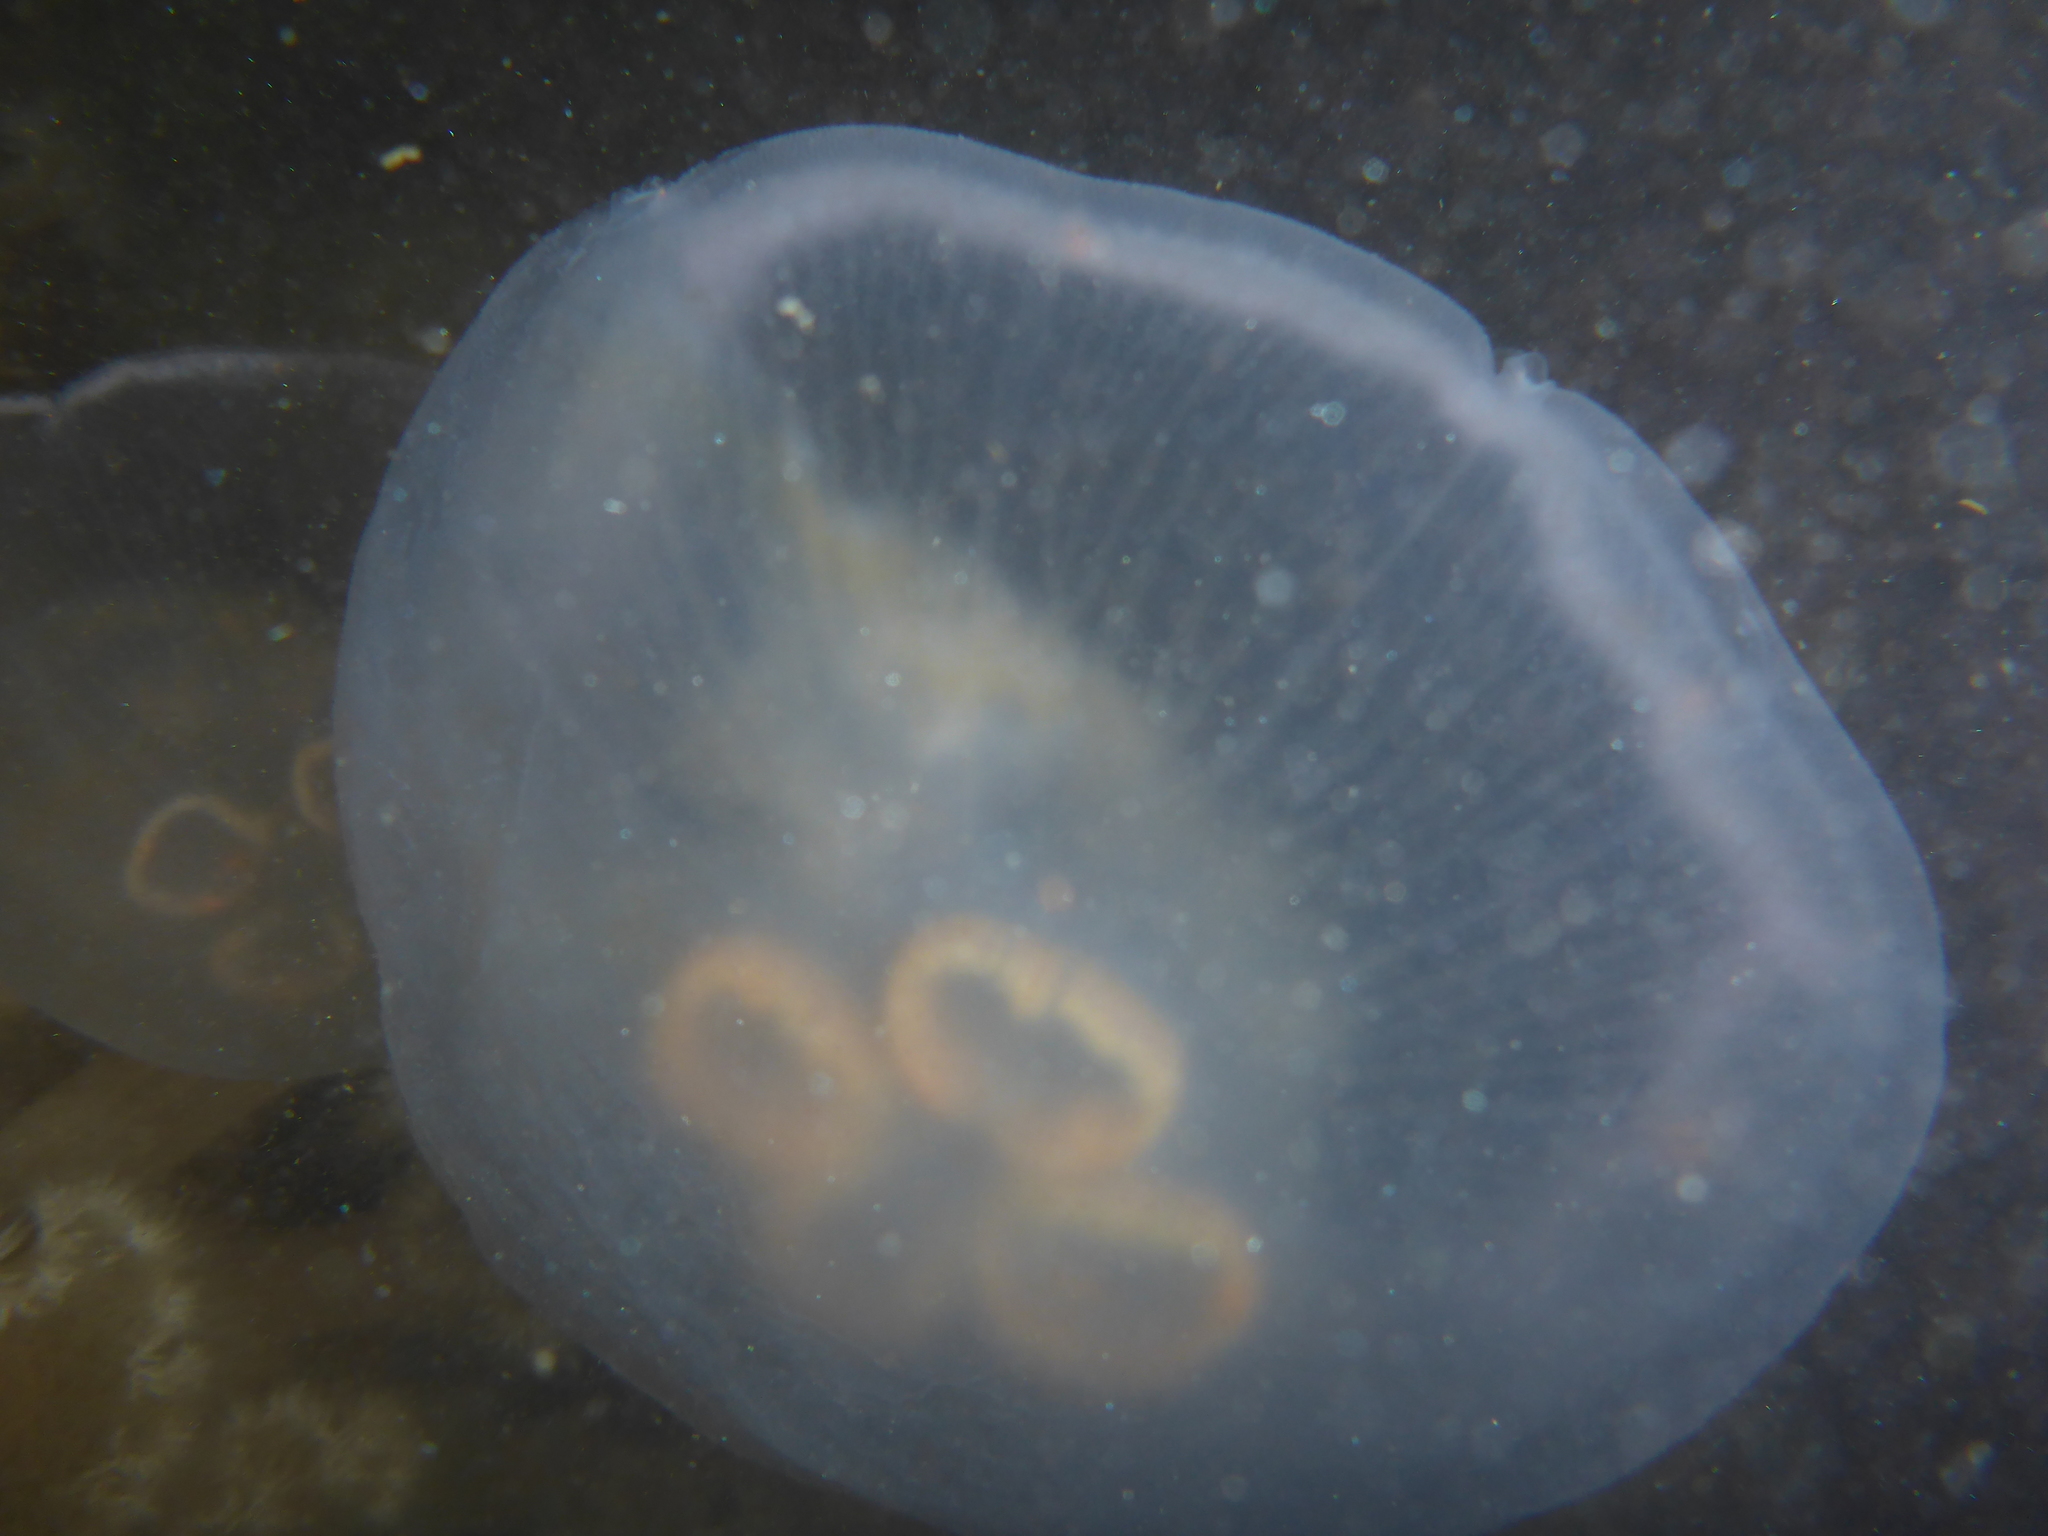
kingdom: Animalia
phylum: Cnidaria
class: Scyphozoa
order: Semaeostomeae
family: Ulmaridae
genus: Aurelia
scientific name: Aurelia labiata
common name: Pacific moon jelly
